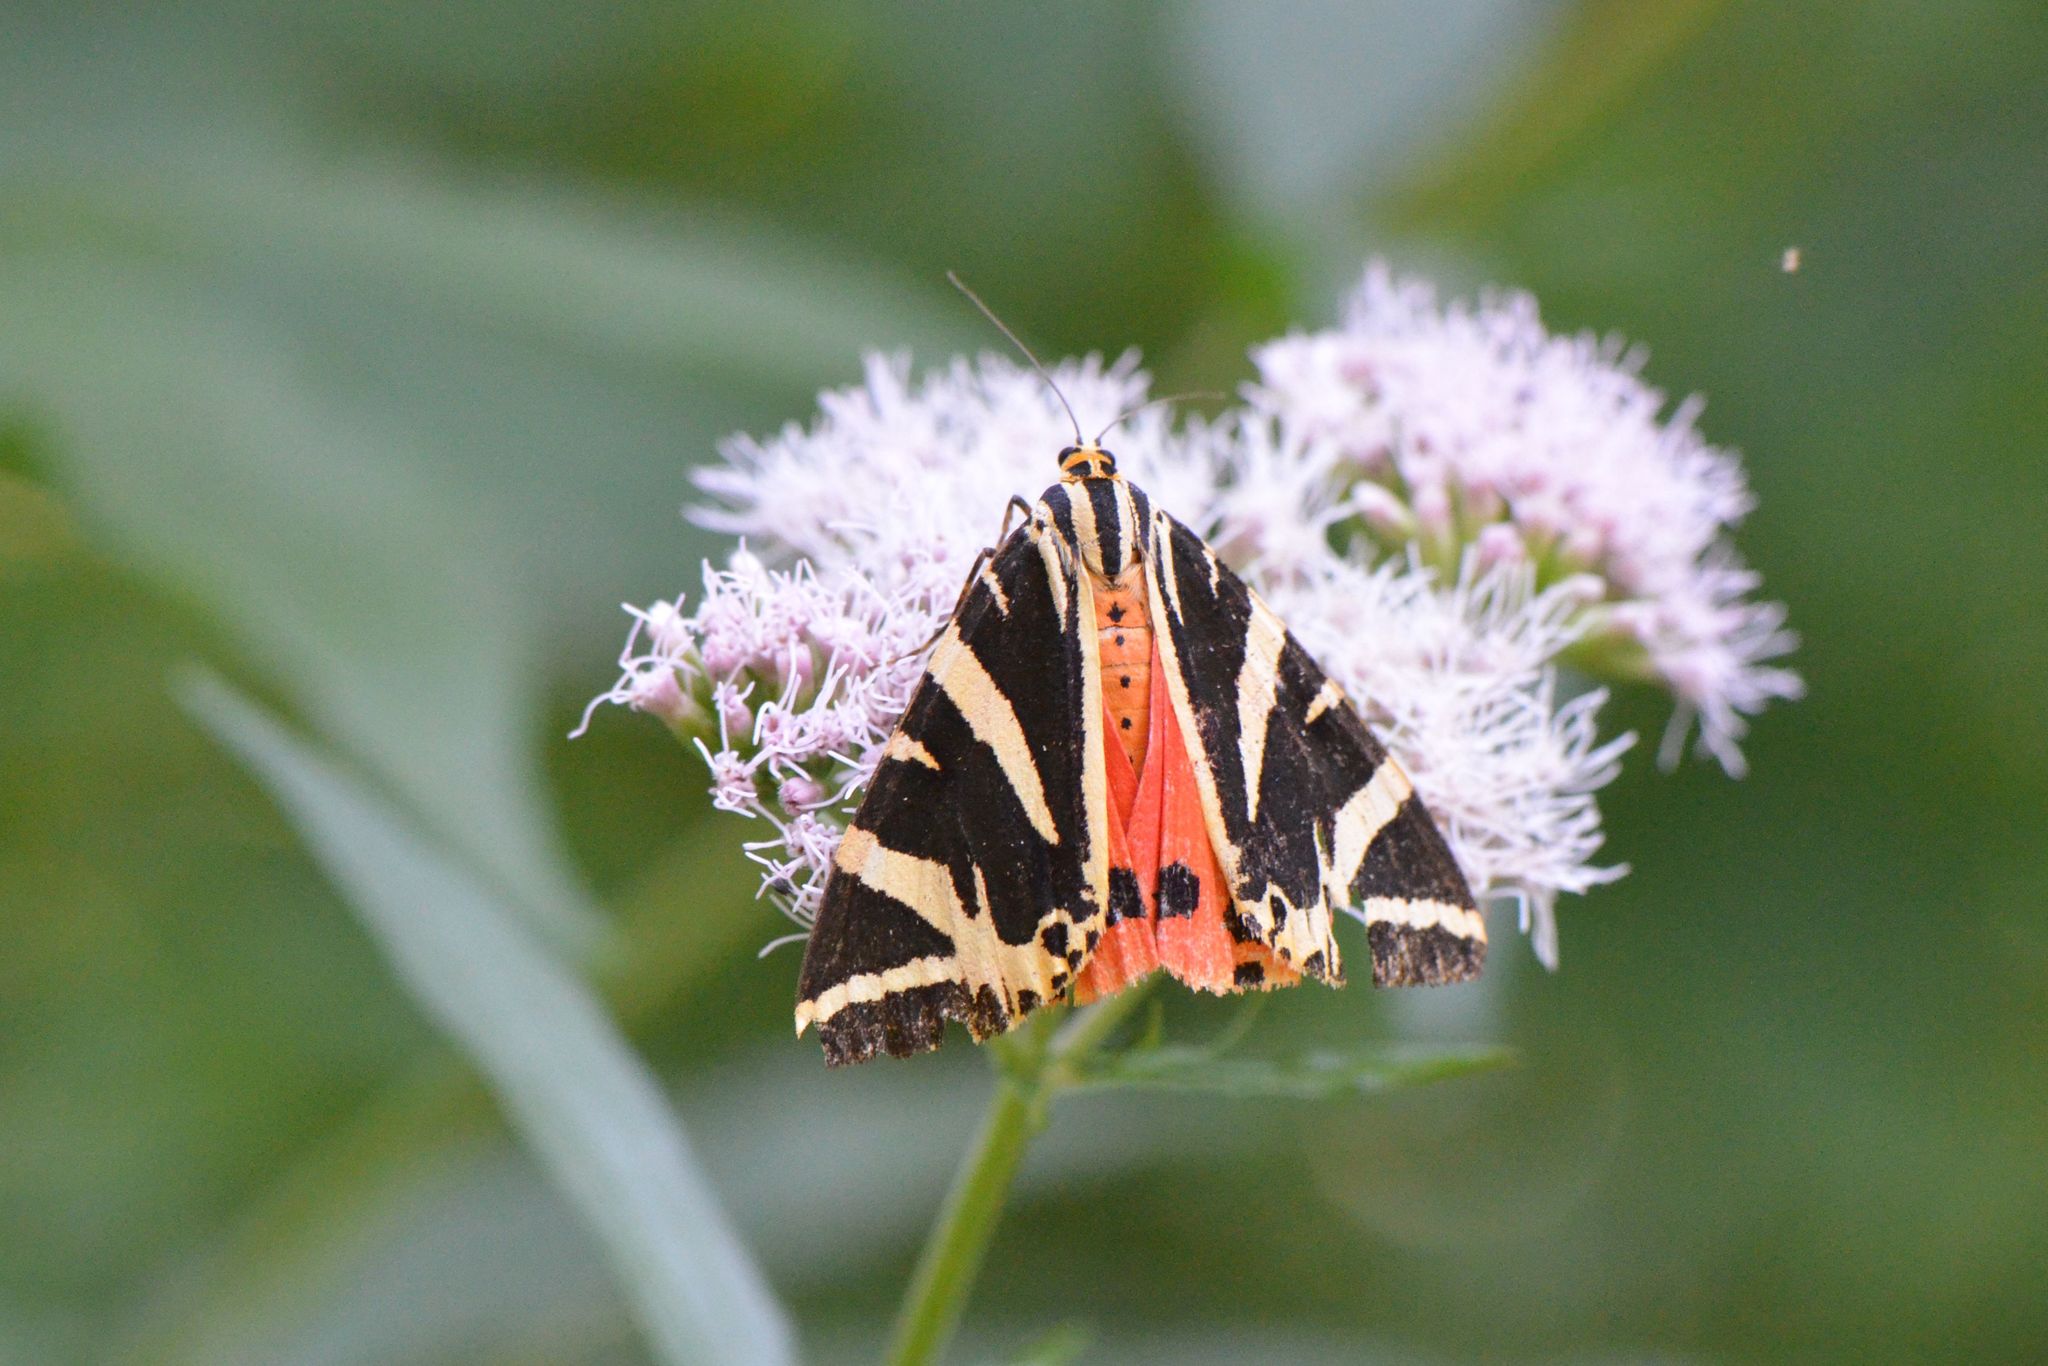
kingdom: Animalia
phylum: Arthropoda
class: Insecta
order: Lepidoptera
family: Erebidae
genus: Euplagia
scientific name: Euplagia quadripunctaria
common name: Jersey tiger
